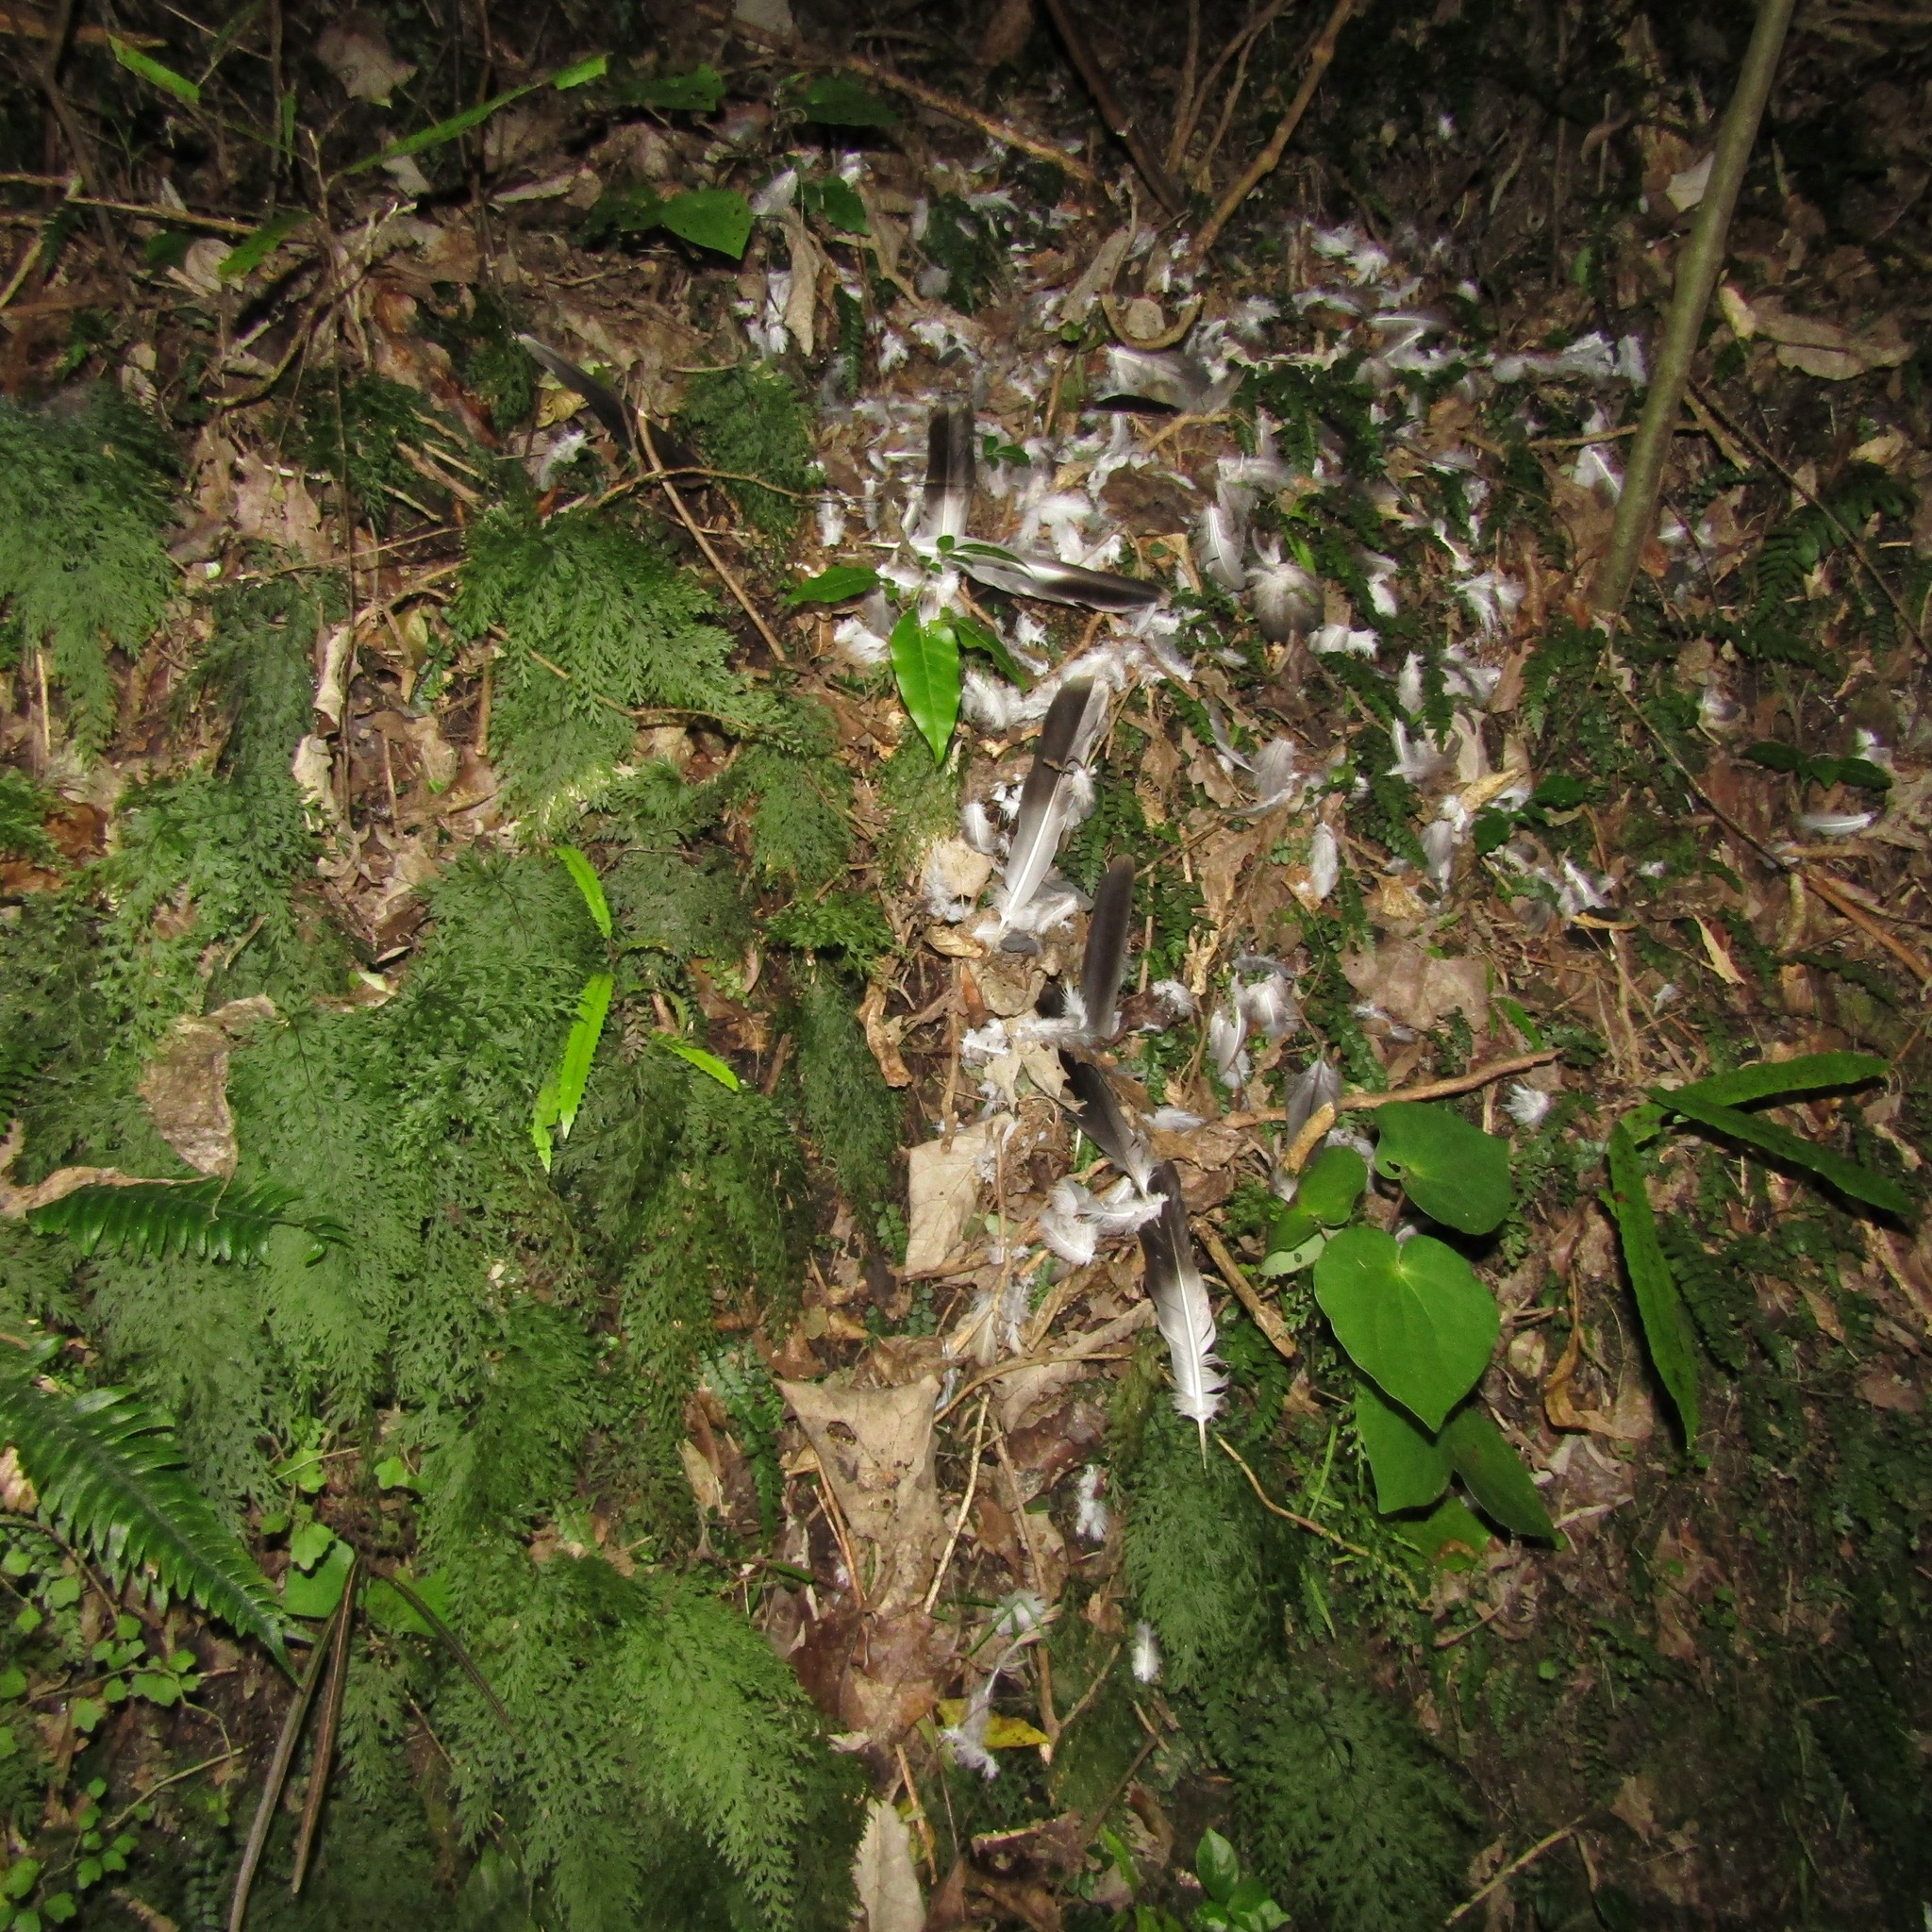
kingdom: Animalia
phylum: Chordata
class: Aves
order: Columbiformes
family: Columbidae
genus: Hemiphaga
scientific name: Hemiphaga novaeseelandiae
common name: New zealand pigeon
